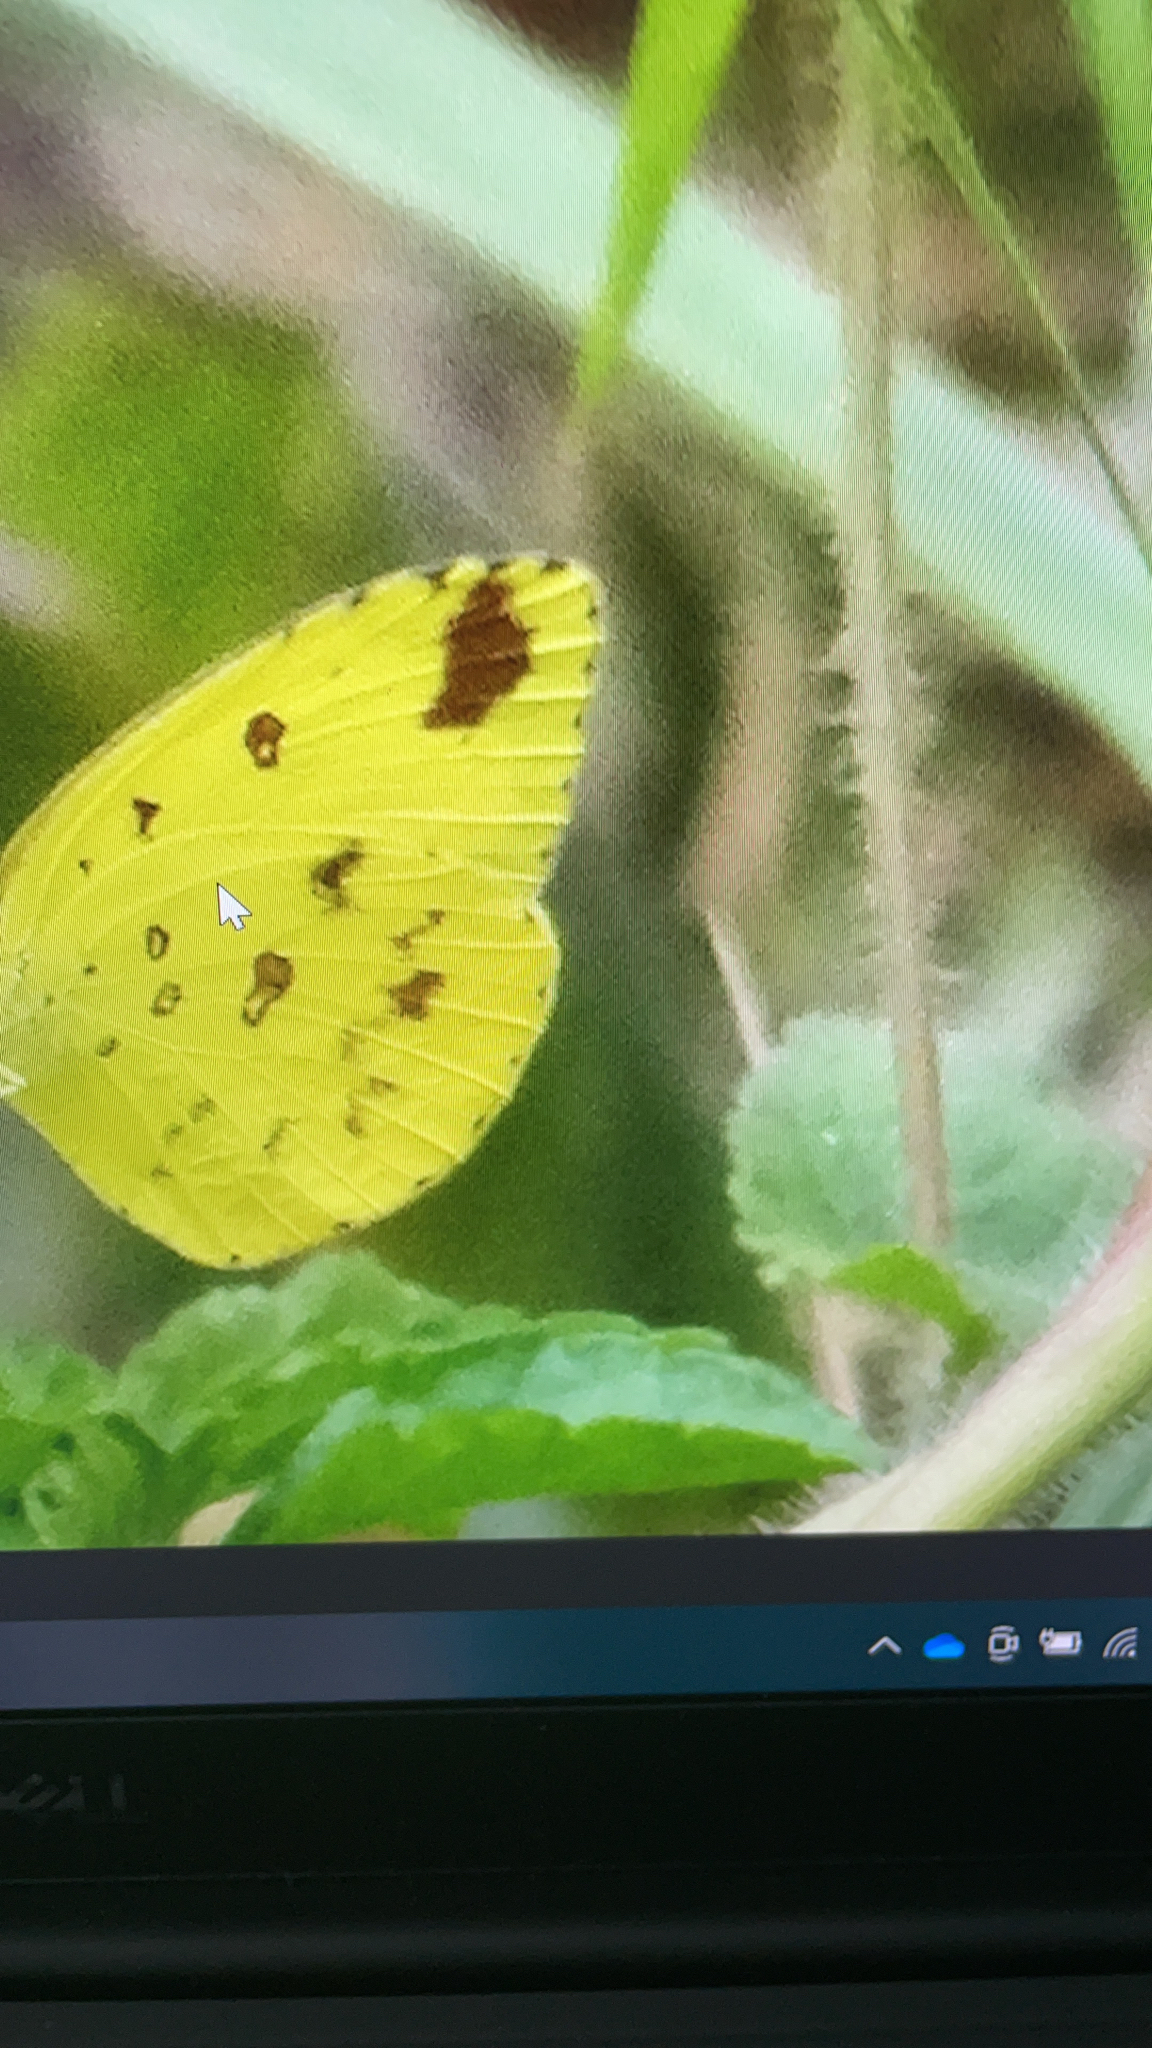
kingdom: Animalia
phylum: Arthropoda
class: Insecta
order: Lepidoptera
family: Pieridae
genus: Eurema
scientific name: Eurema hecabe
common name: Pale grass yellow
